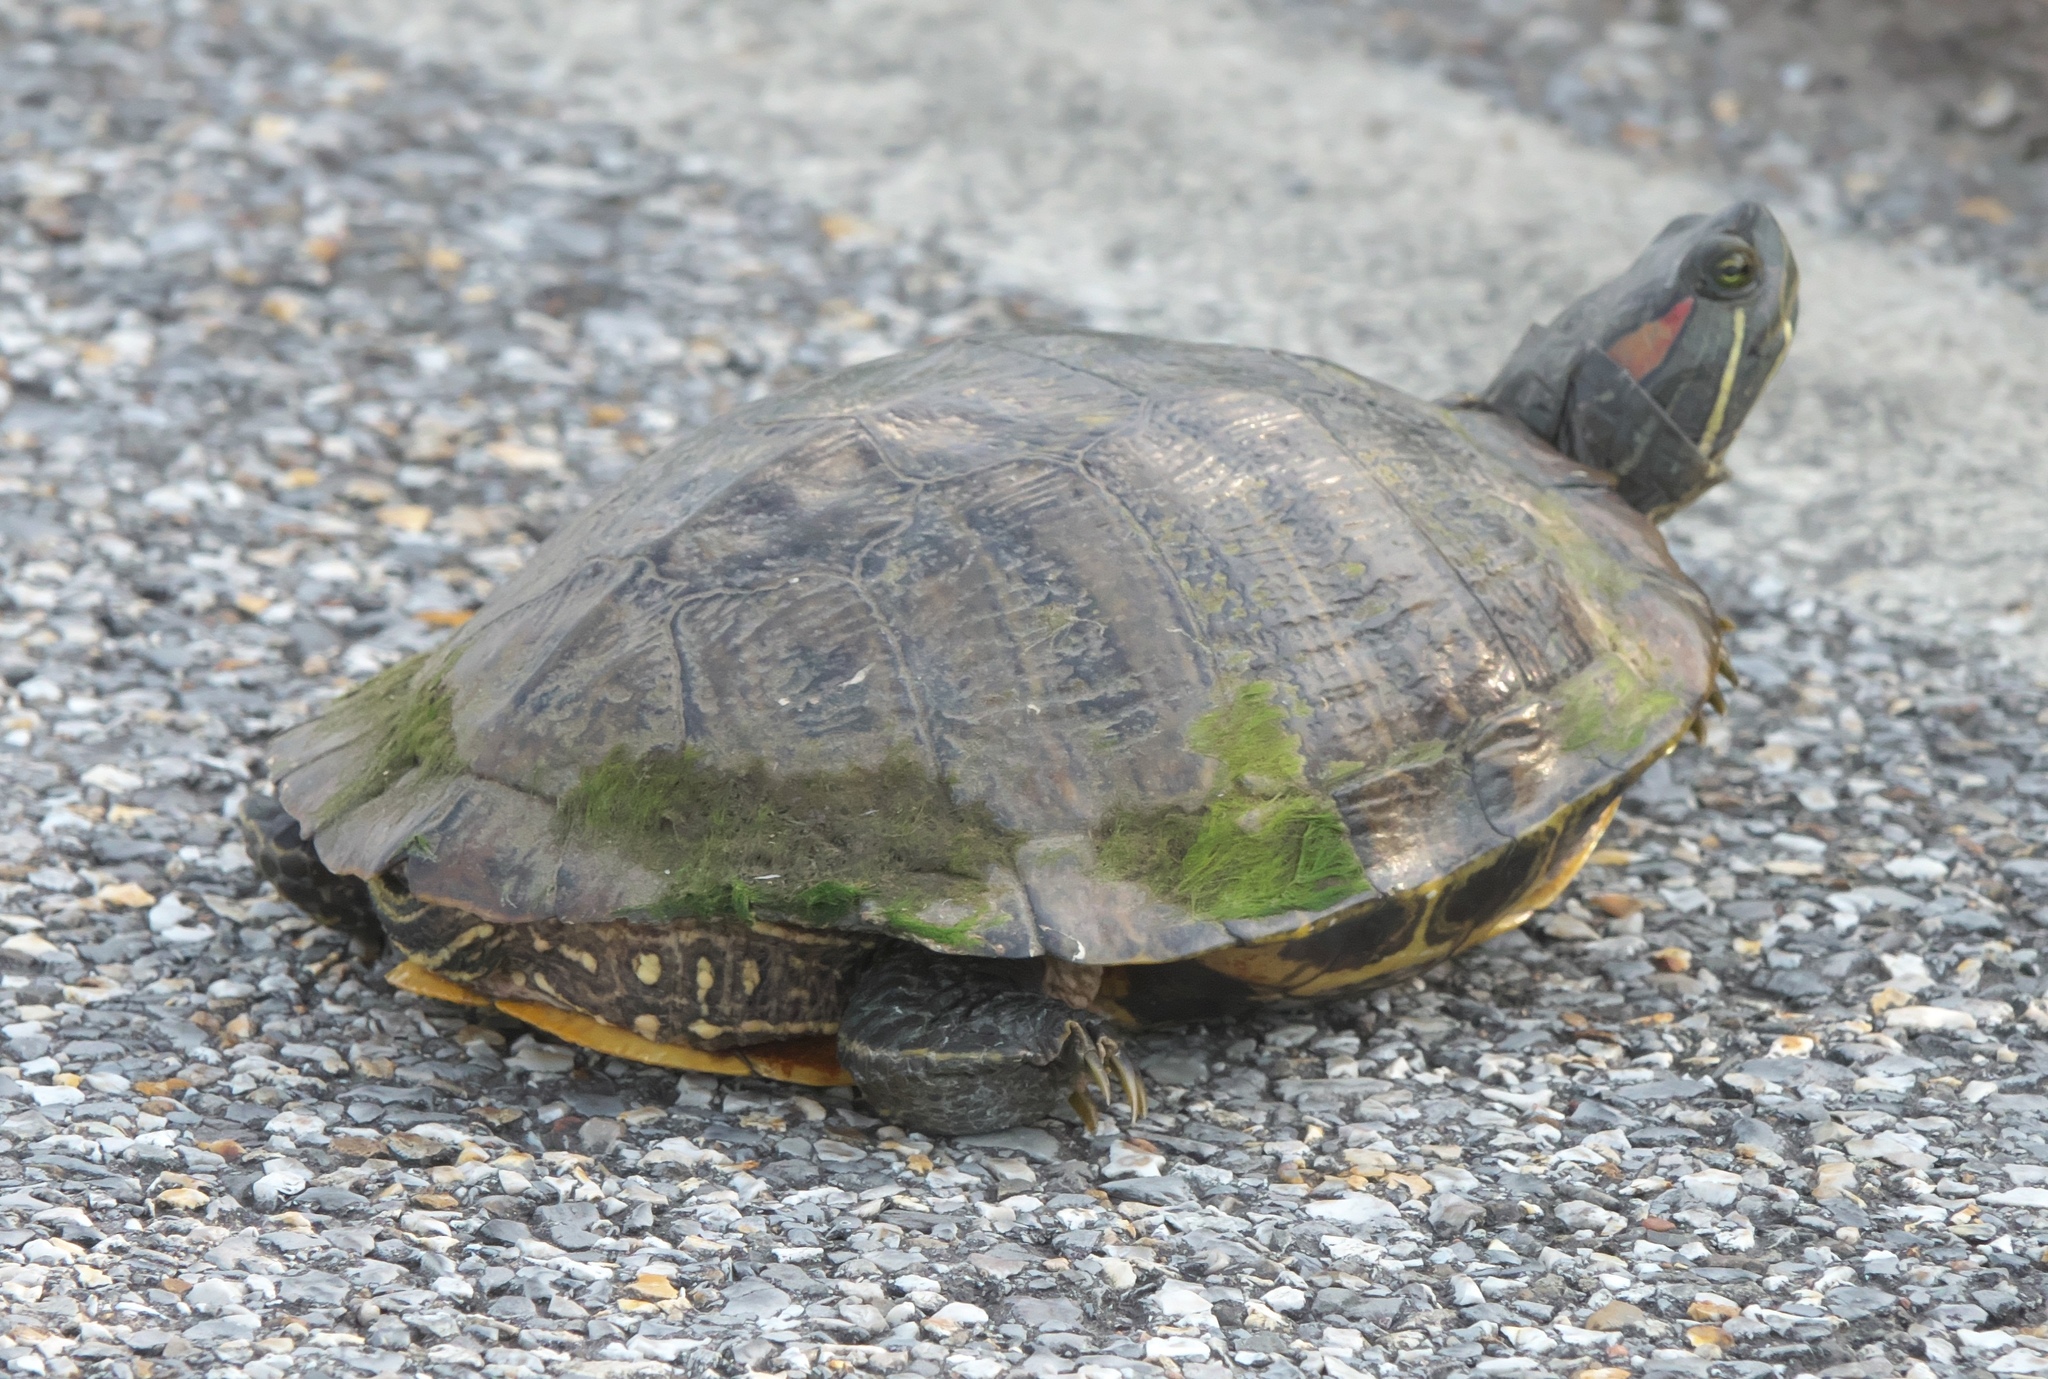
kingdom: Animalia
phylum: Chordata
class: Testudines
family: Emydidae
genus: Trachemys
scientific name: Trachemys scripta
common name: Slider
